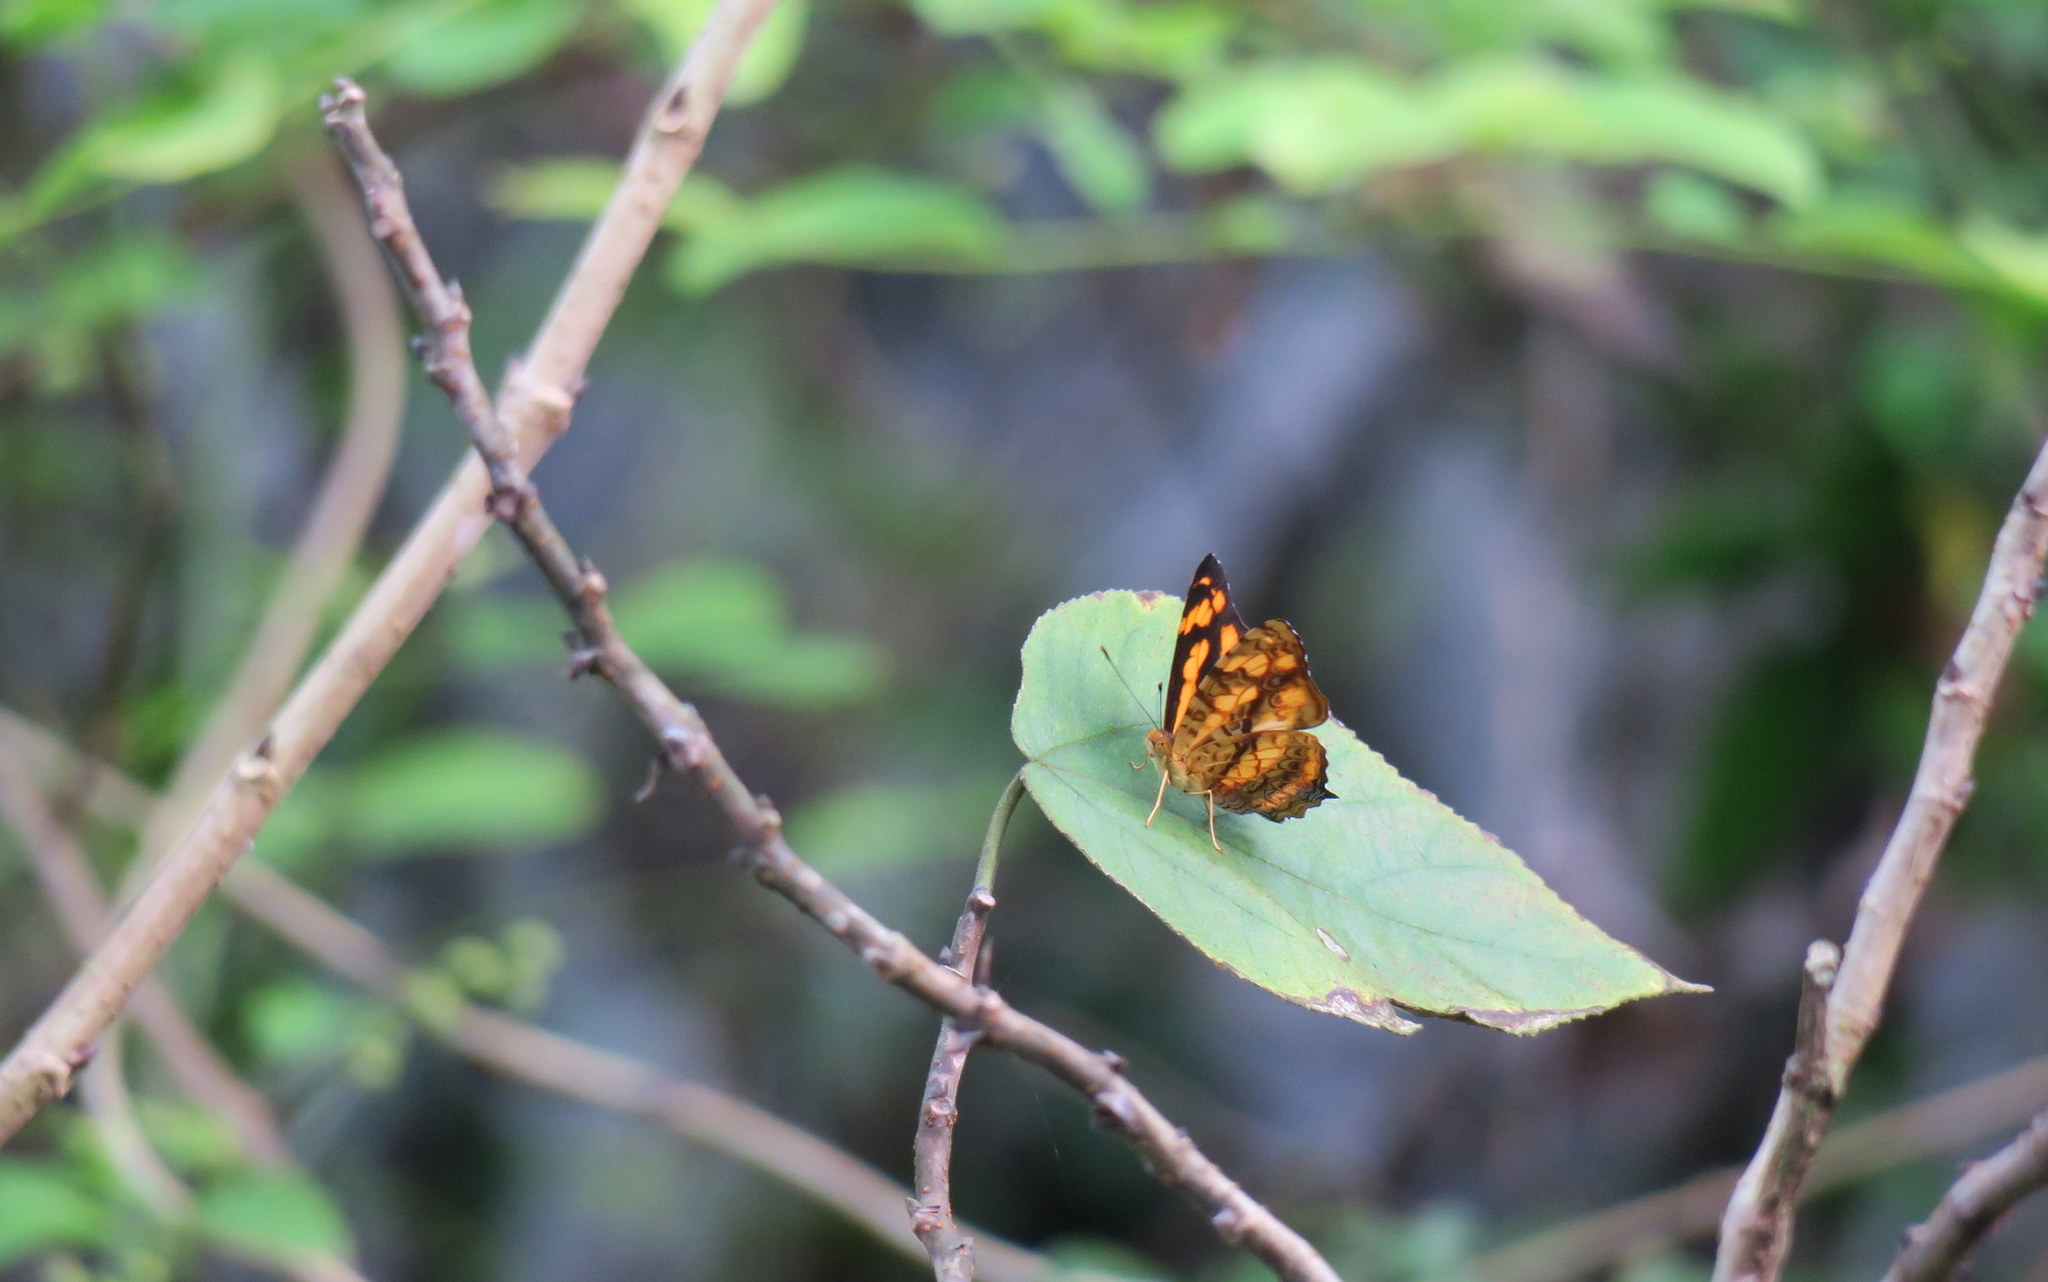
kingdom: Animalia
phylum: Arthropoda
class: Insecta
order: Lepidoptera
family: Nymphalidae
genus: Symbrenthia
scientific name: Symbrenthia hypselis
